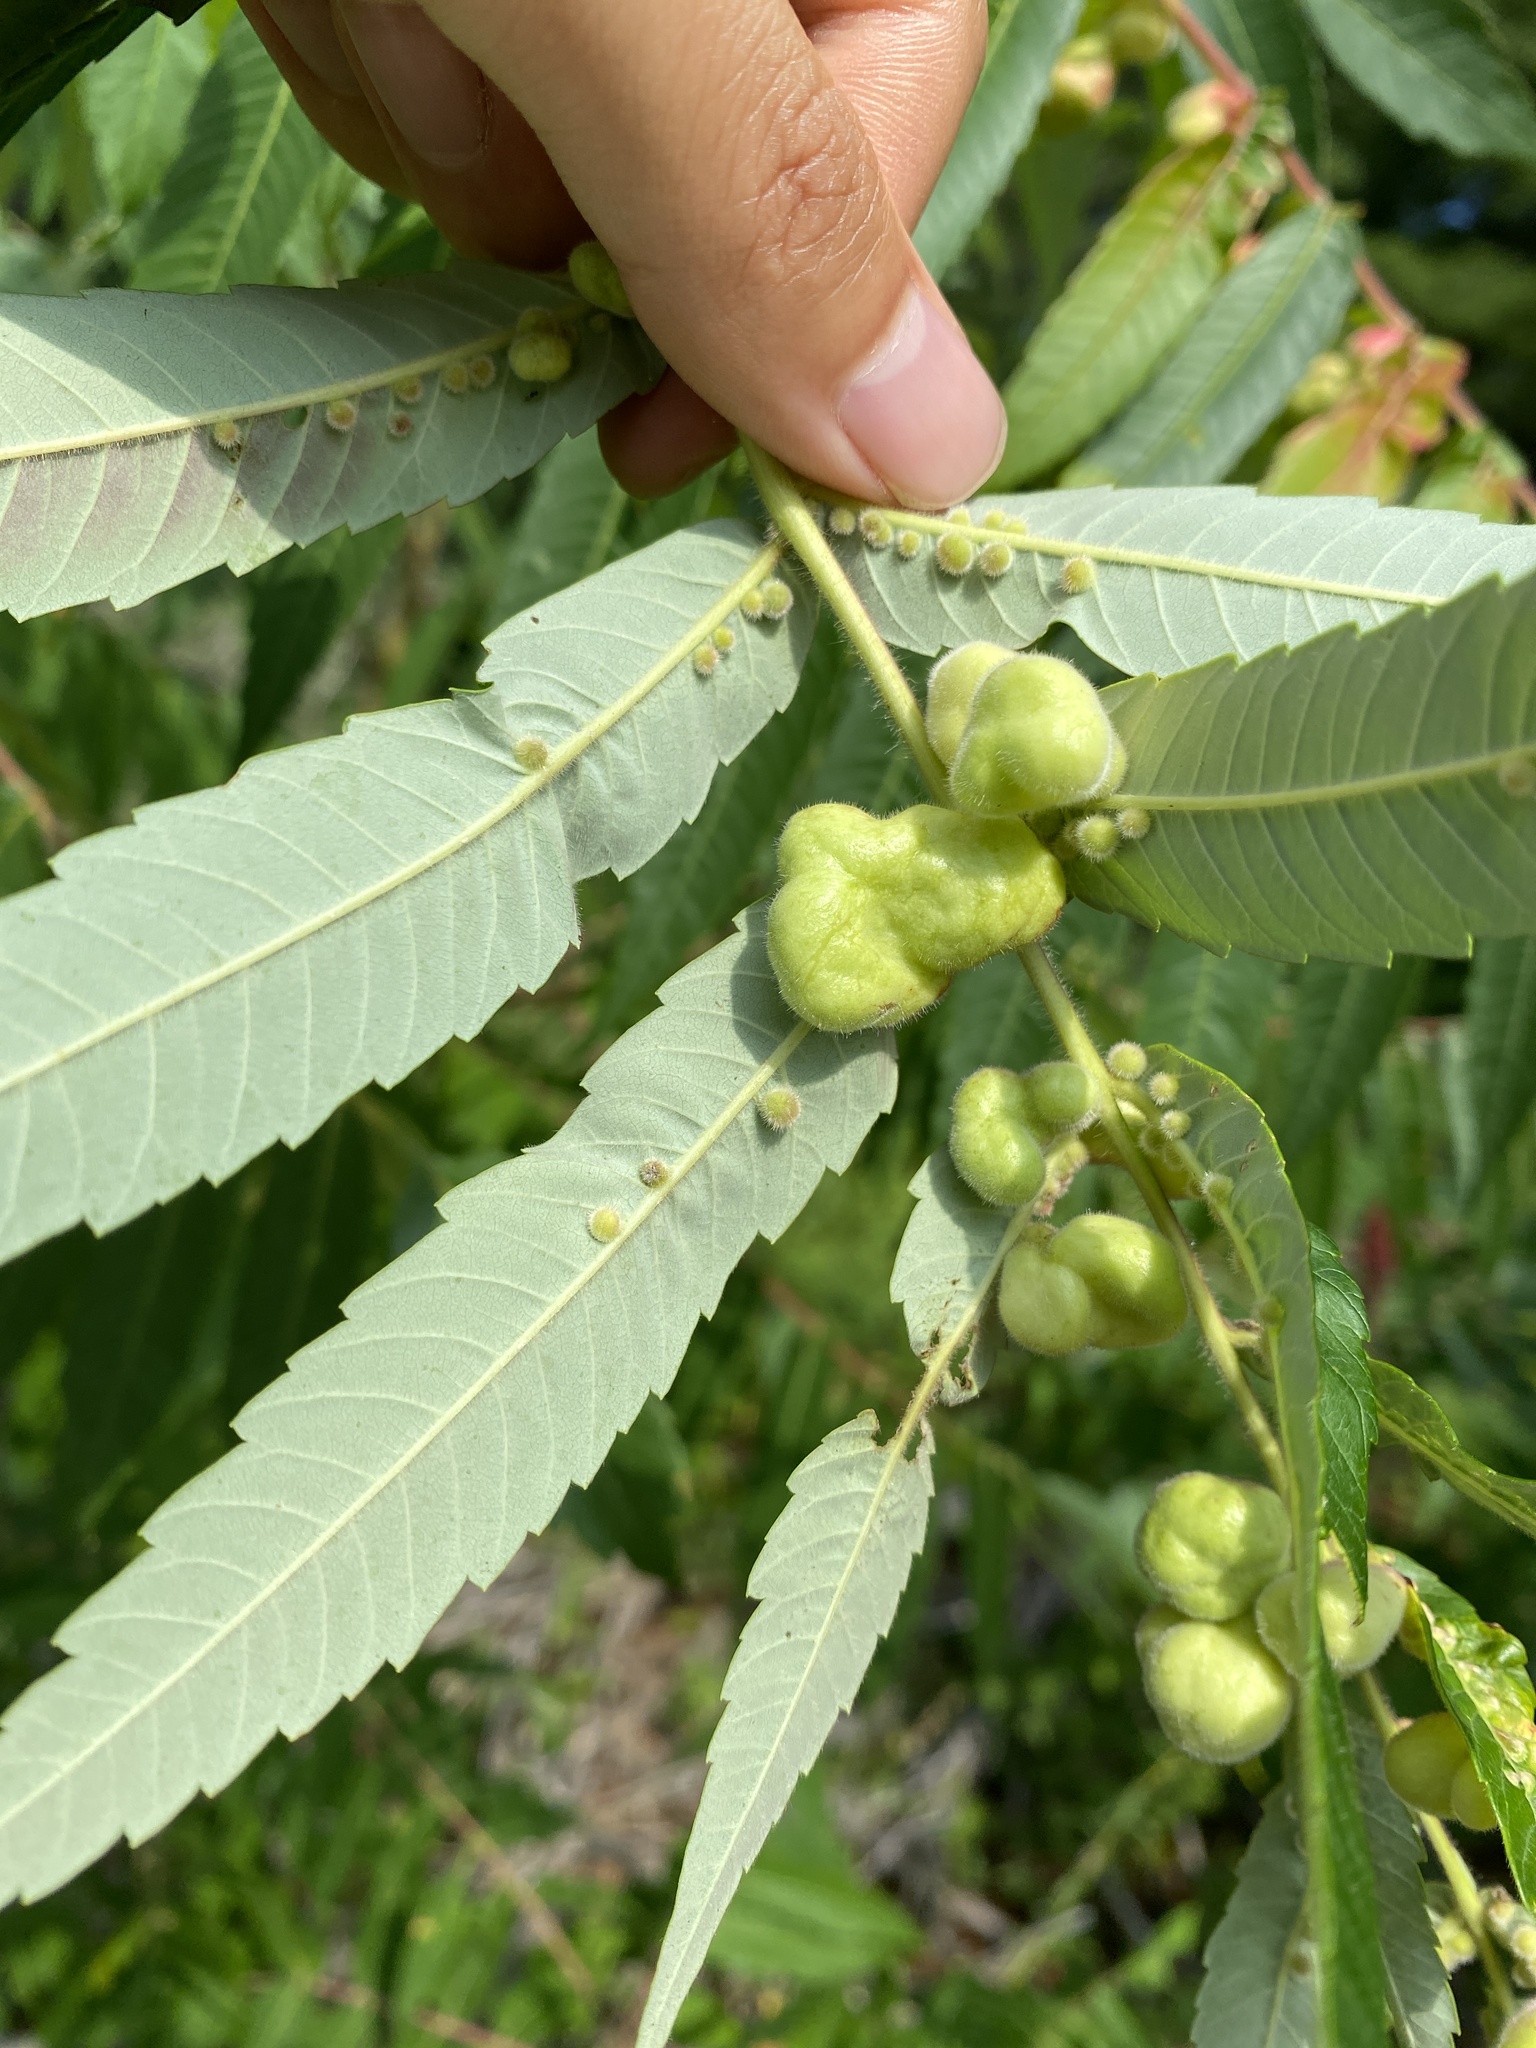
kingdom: Animalia
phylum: Arthropoda
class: Insecta
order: Hemiptera
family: Aphididae
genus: Melaphis
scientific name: Melaphis rhois
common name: Sumac gall aphid
